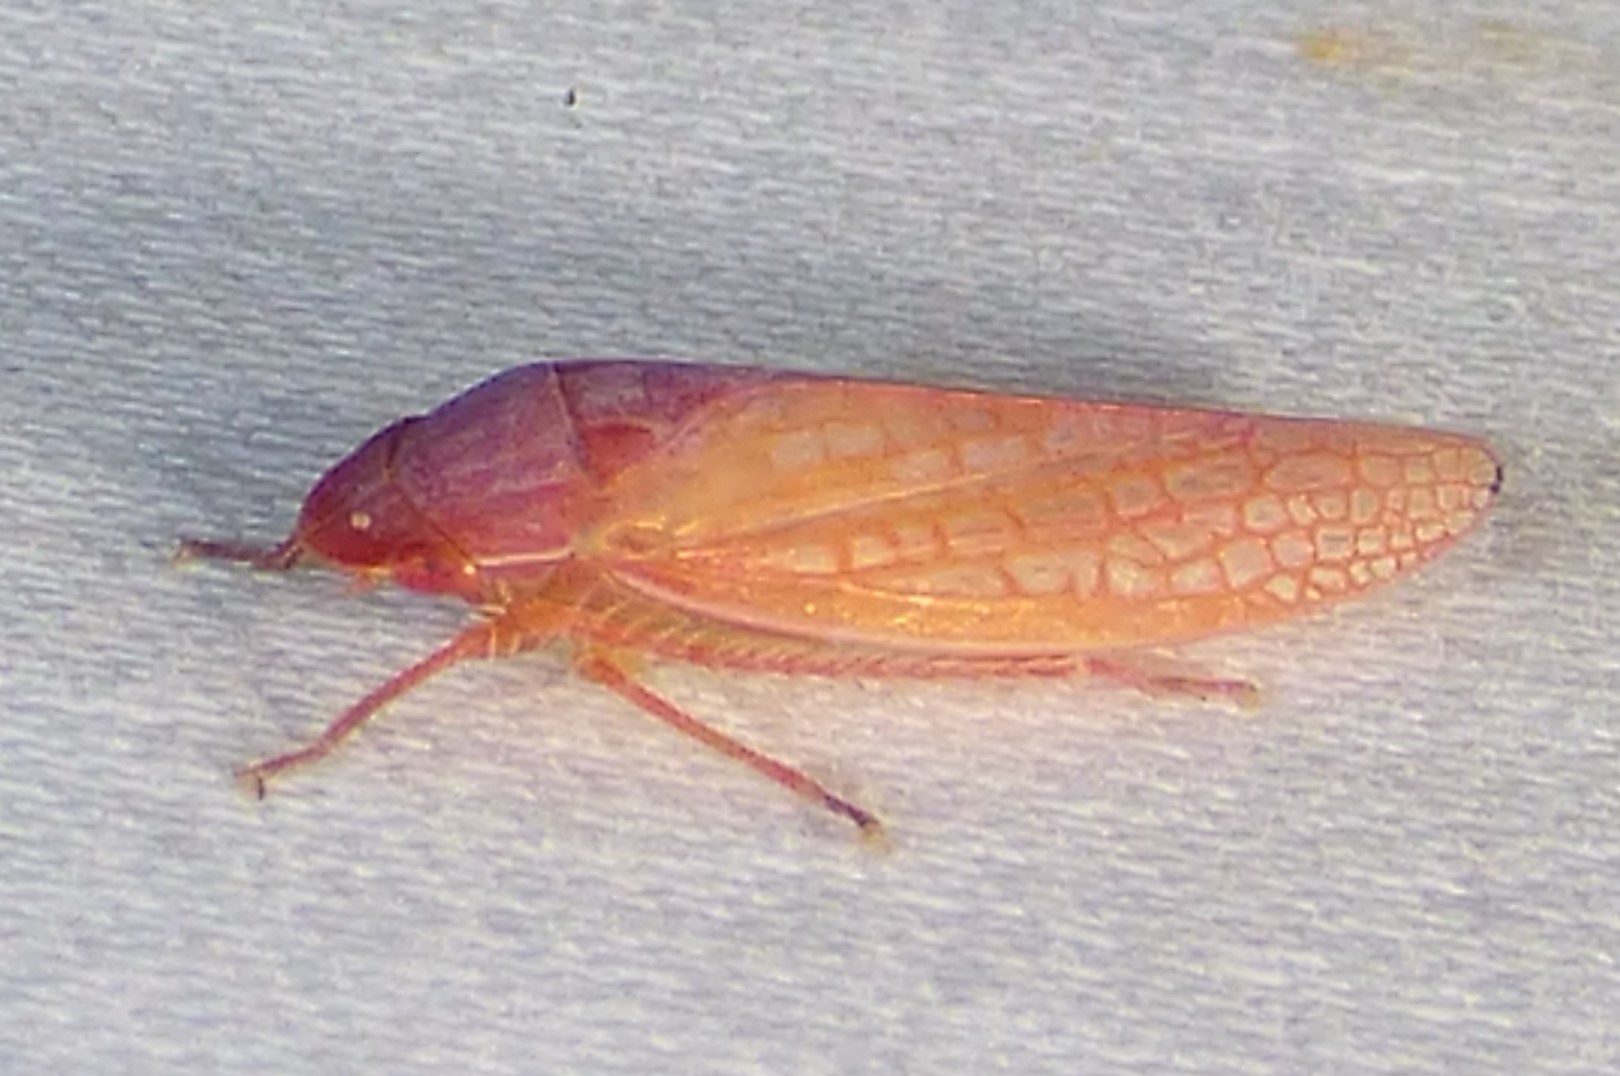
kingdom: Animalia
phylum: Arthropoda
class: Insecta
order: Hemiptera
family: Cicadellidae
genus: Gyponana
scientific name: Gyponana gladia
